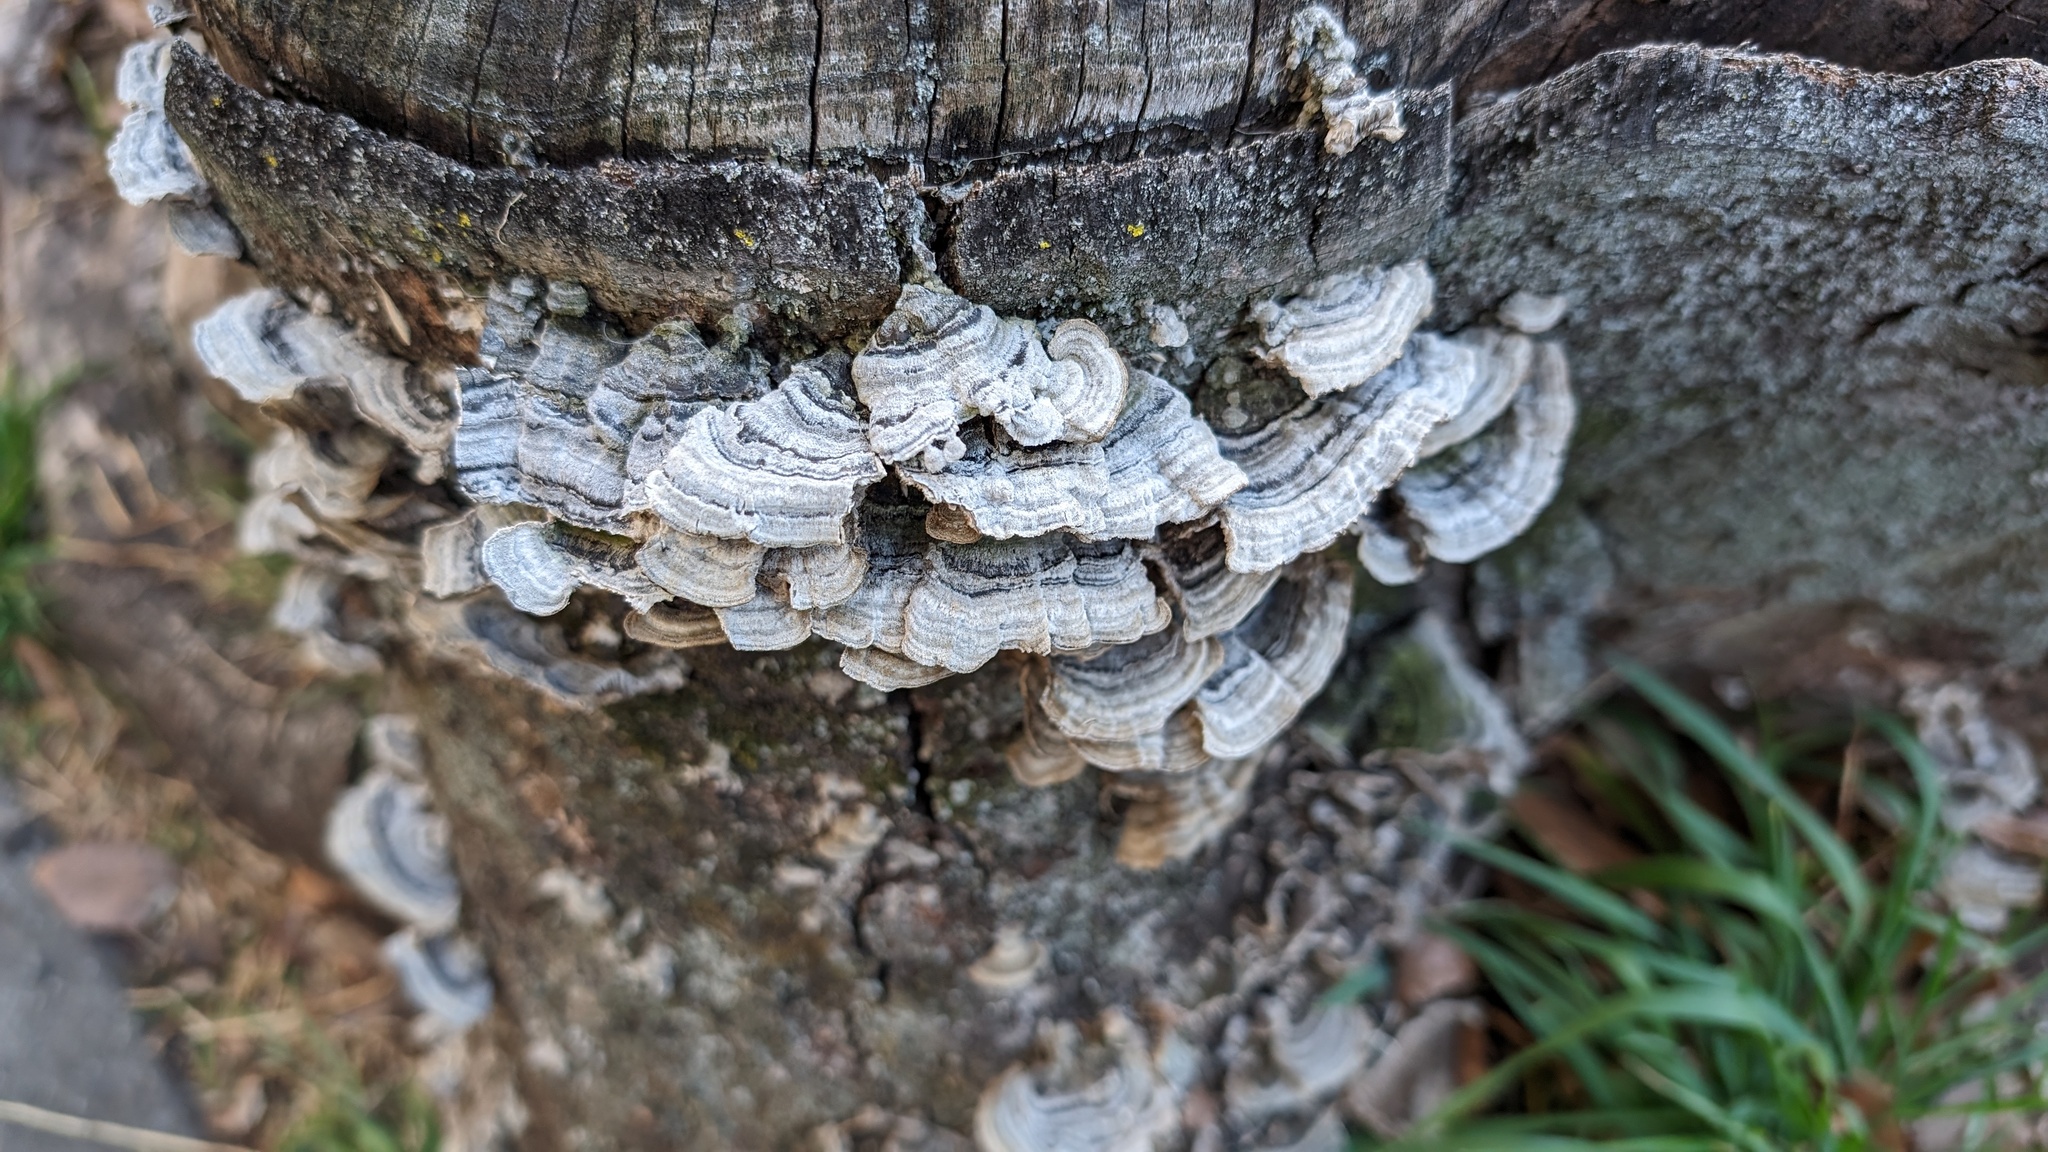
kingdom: Fungi
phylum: Basidiomycota
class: Agaricomycetes
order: Polyporales
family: Cerrenaceae
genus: Cerrena
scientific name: Cerrena unicolor
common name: Mossy maze polypore
